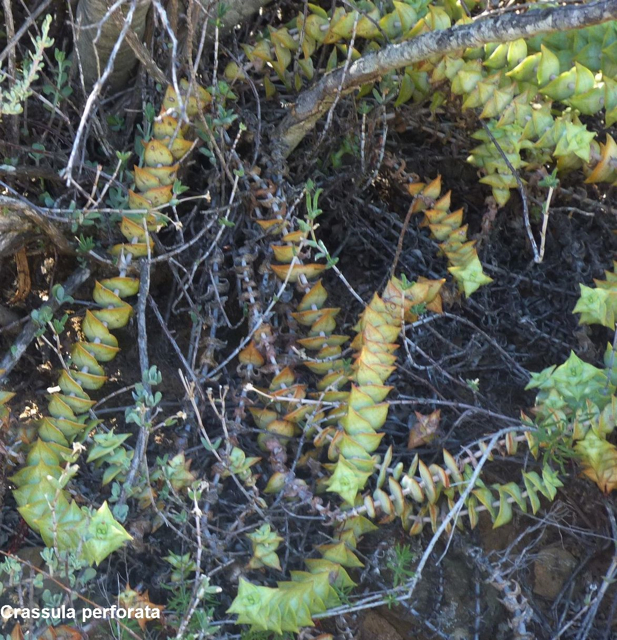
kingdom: Plantae
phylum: Tracheophyta
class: Magnoliopsida
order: Saxifragales
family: Crassulaceae
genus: Crassula
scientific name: Crassula perforata
